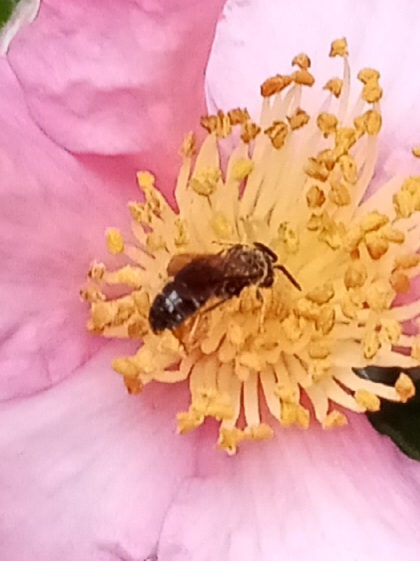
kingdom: Animalia
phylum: Arthropoda
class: Insecta
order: Hymenoptera
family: Halictidae
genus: Lasioglossum
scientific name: Lasioglossum fuscipenne
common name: Brown-winged sweat bee
